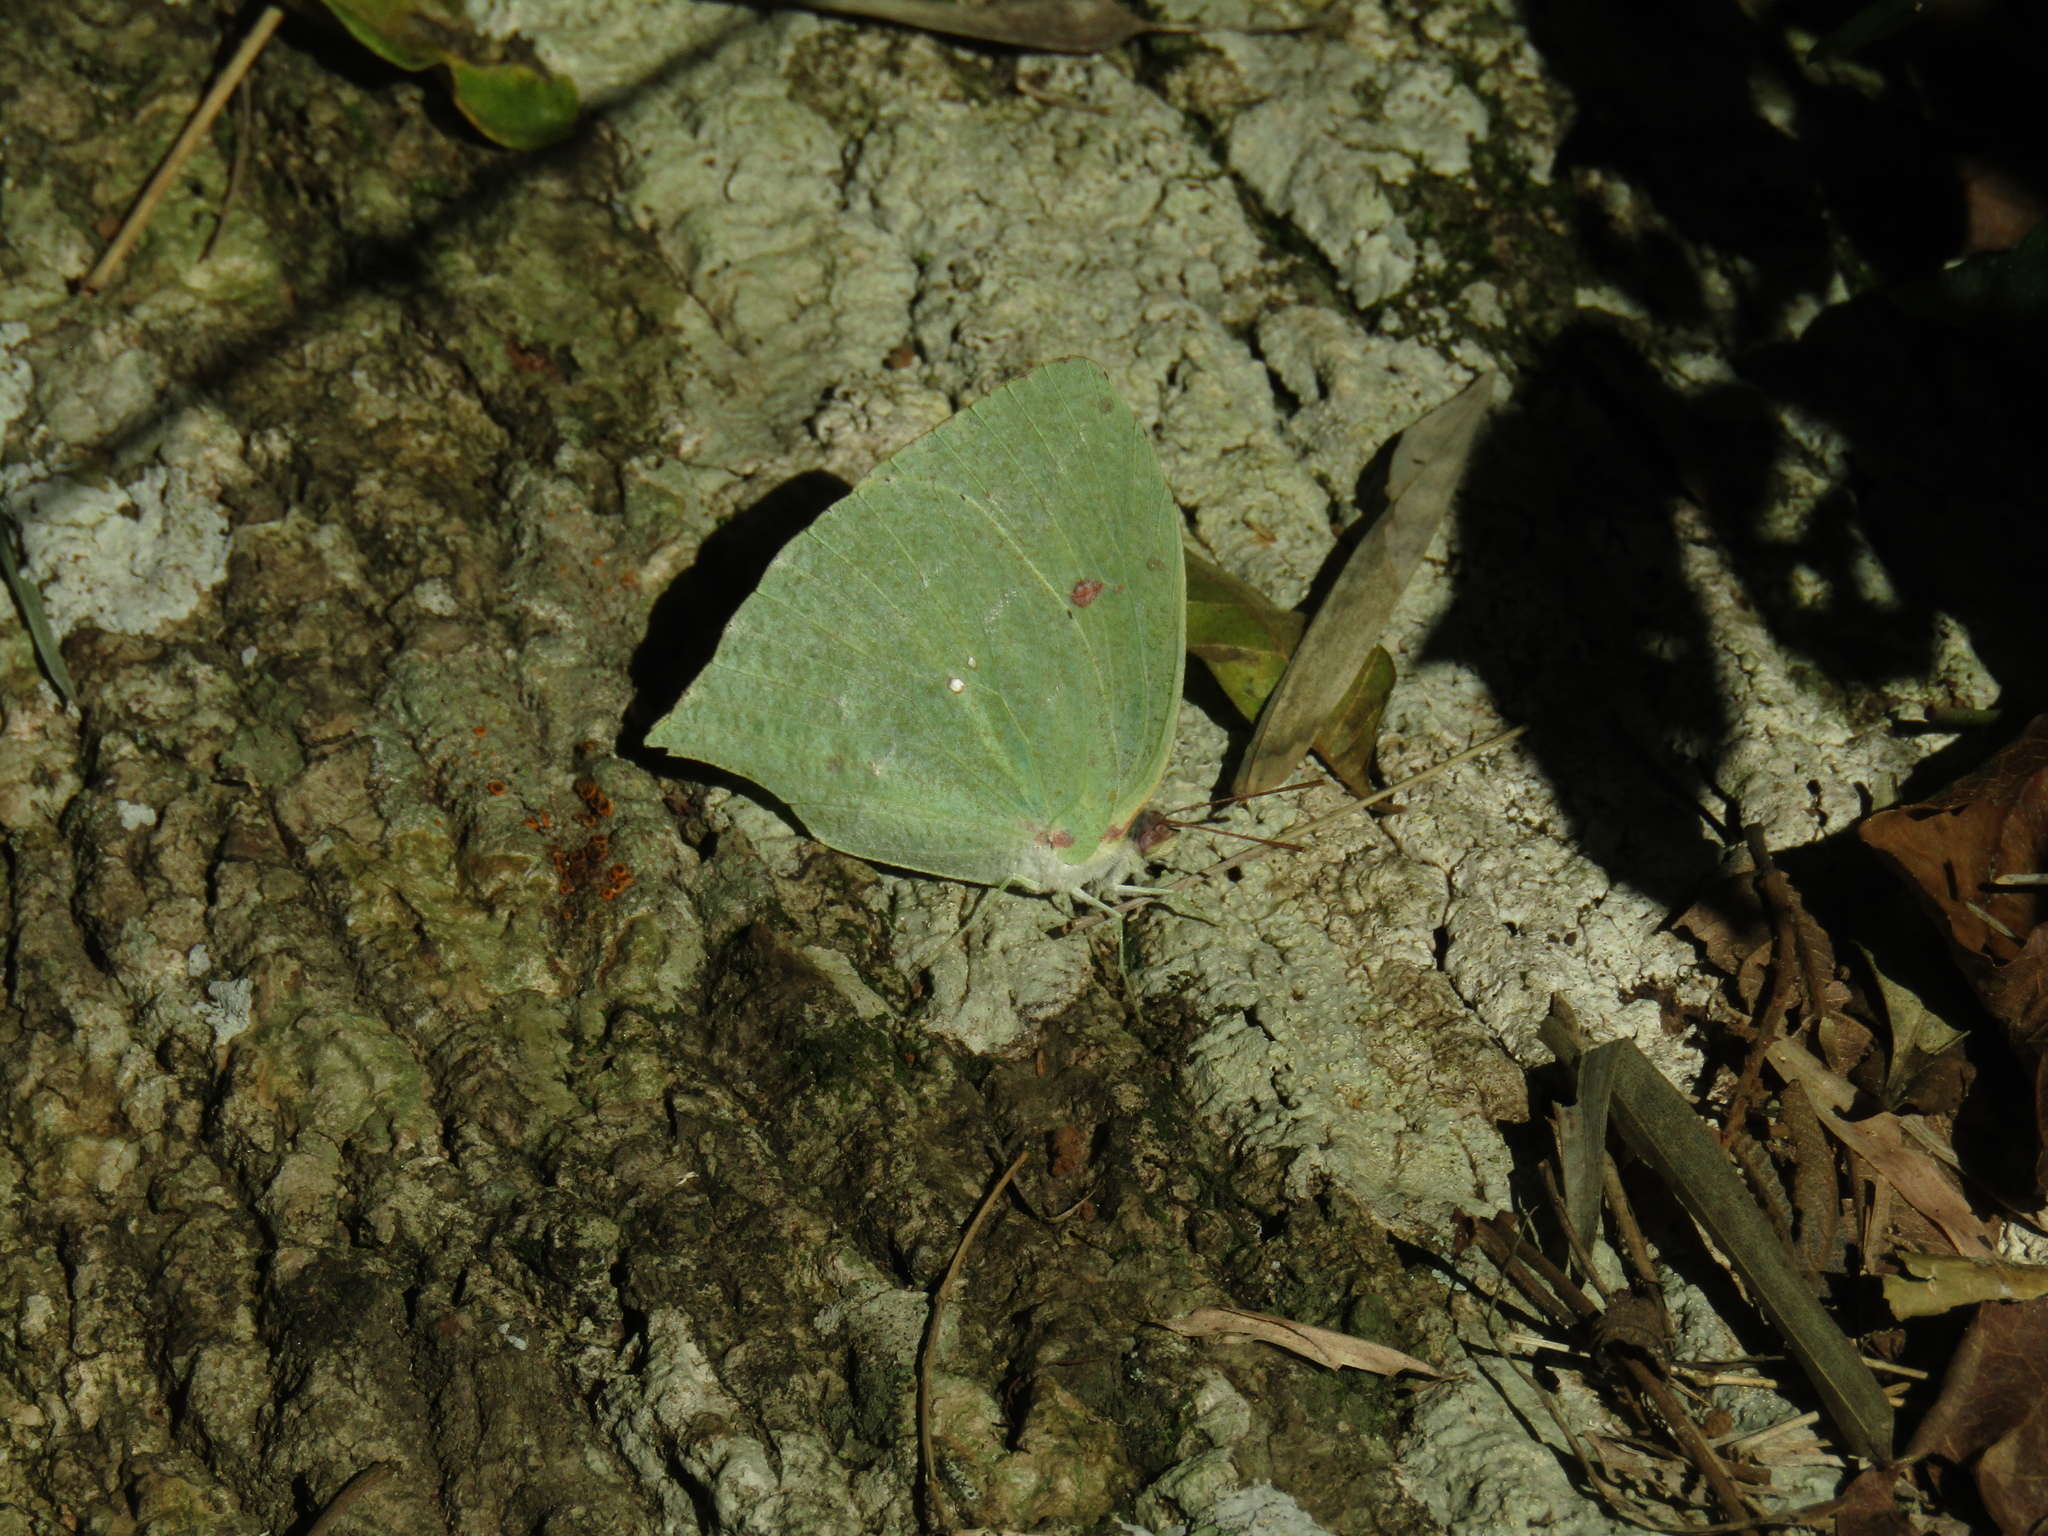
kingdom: Animalia
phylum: Arthropoda
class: Insecta
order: Lepidoptera
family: Pieridae
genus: Phoebis
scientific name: Phoebis neocypris
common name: Tailed sulphur
